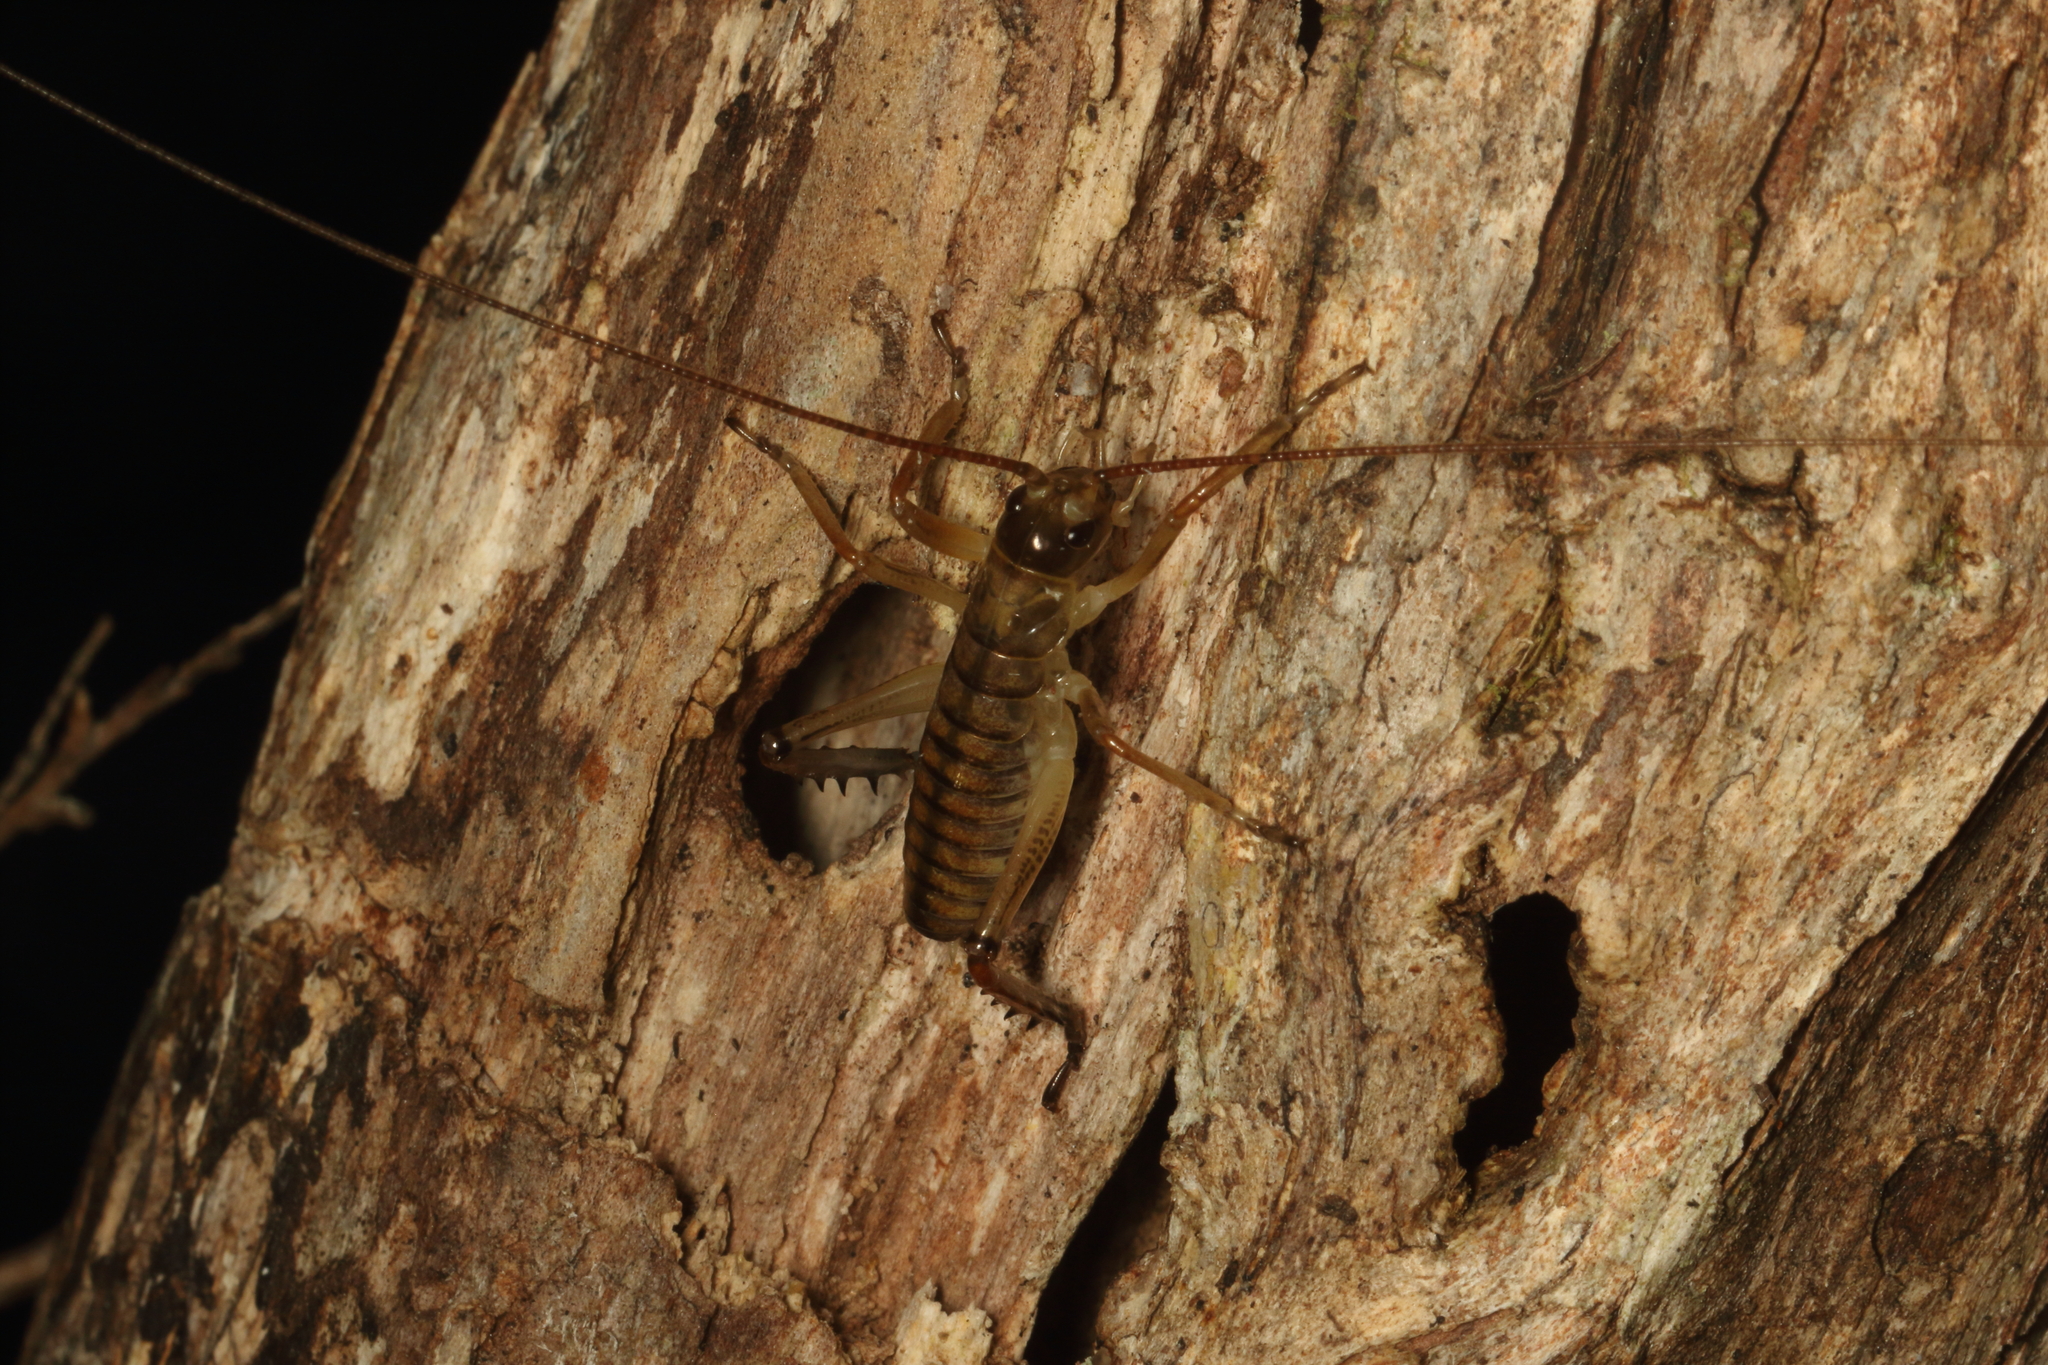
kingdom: Animalia
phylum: Arthropoda
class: Insecta
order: Orthoptera
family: Anostostomatidae
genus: Hemideina
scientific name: Hemideina thoracica
